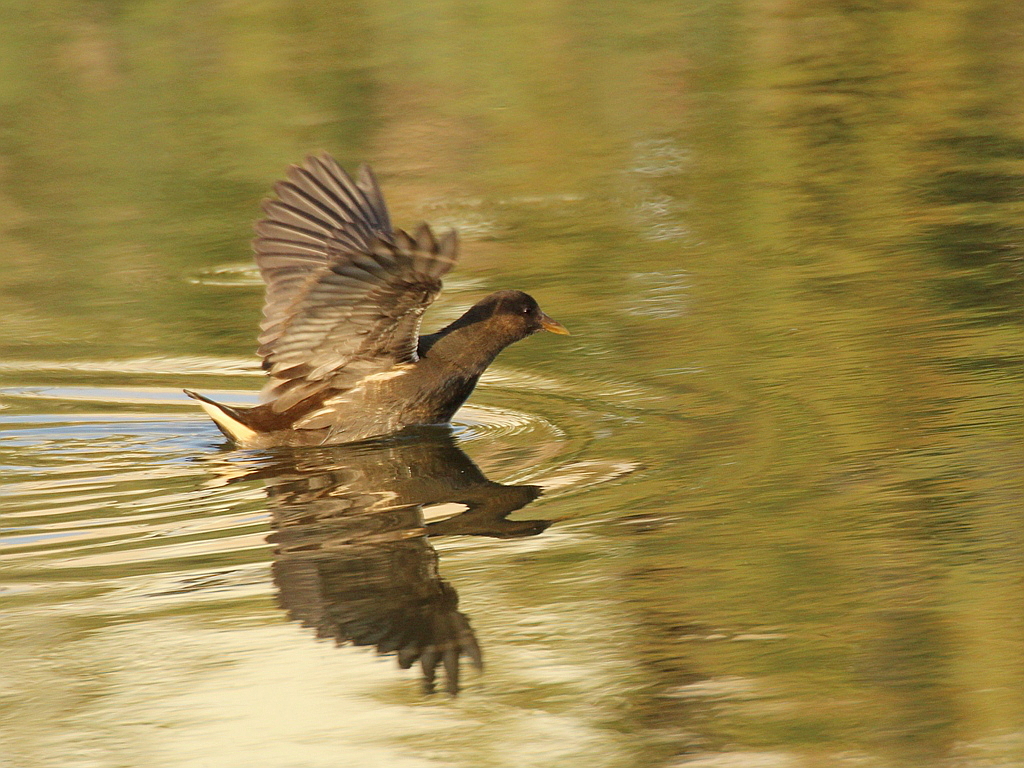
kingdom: Animalia
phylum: Chordata
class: Aves
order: Gruiformes
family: Rallidae
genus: Gallinula
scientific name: Gallinula chloropus
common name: Common moorhen
